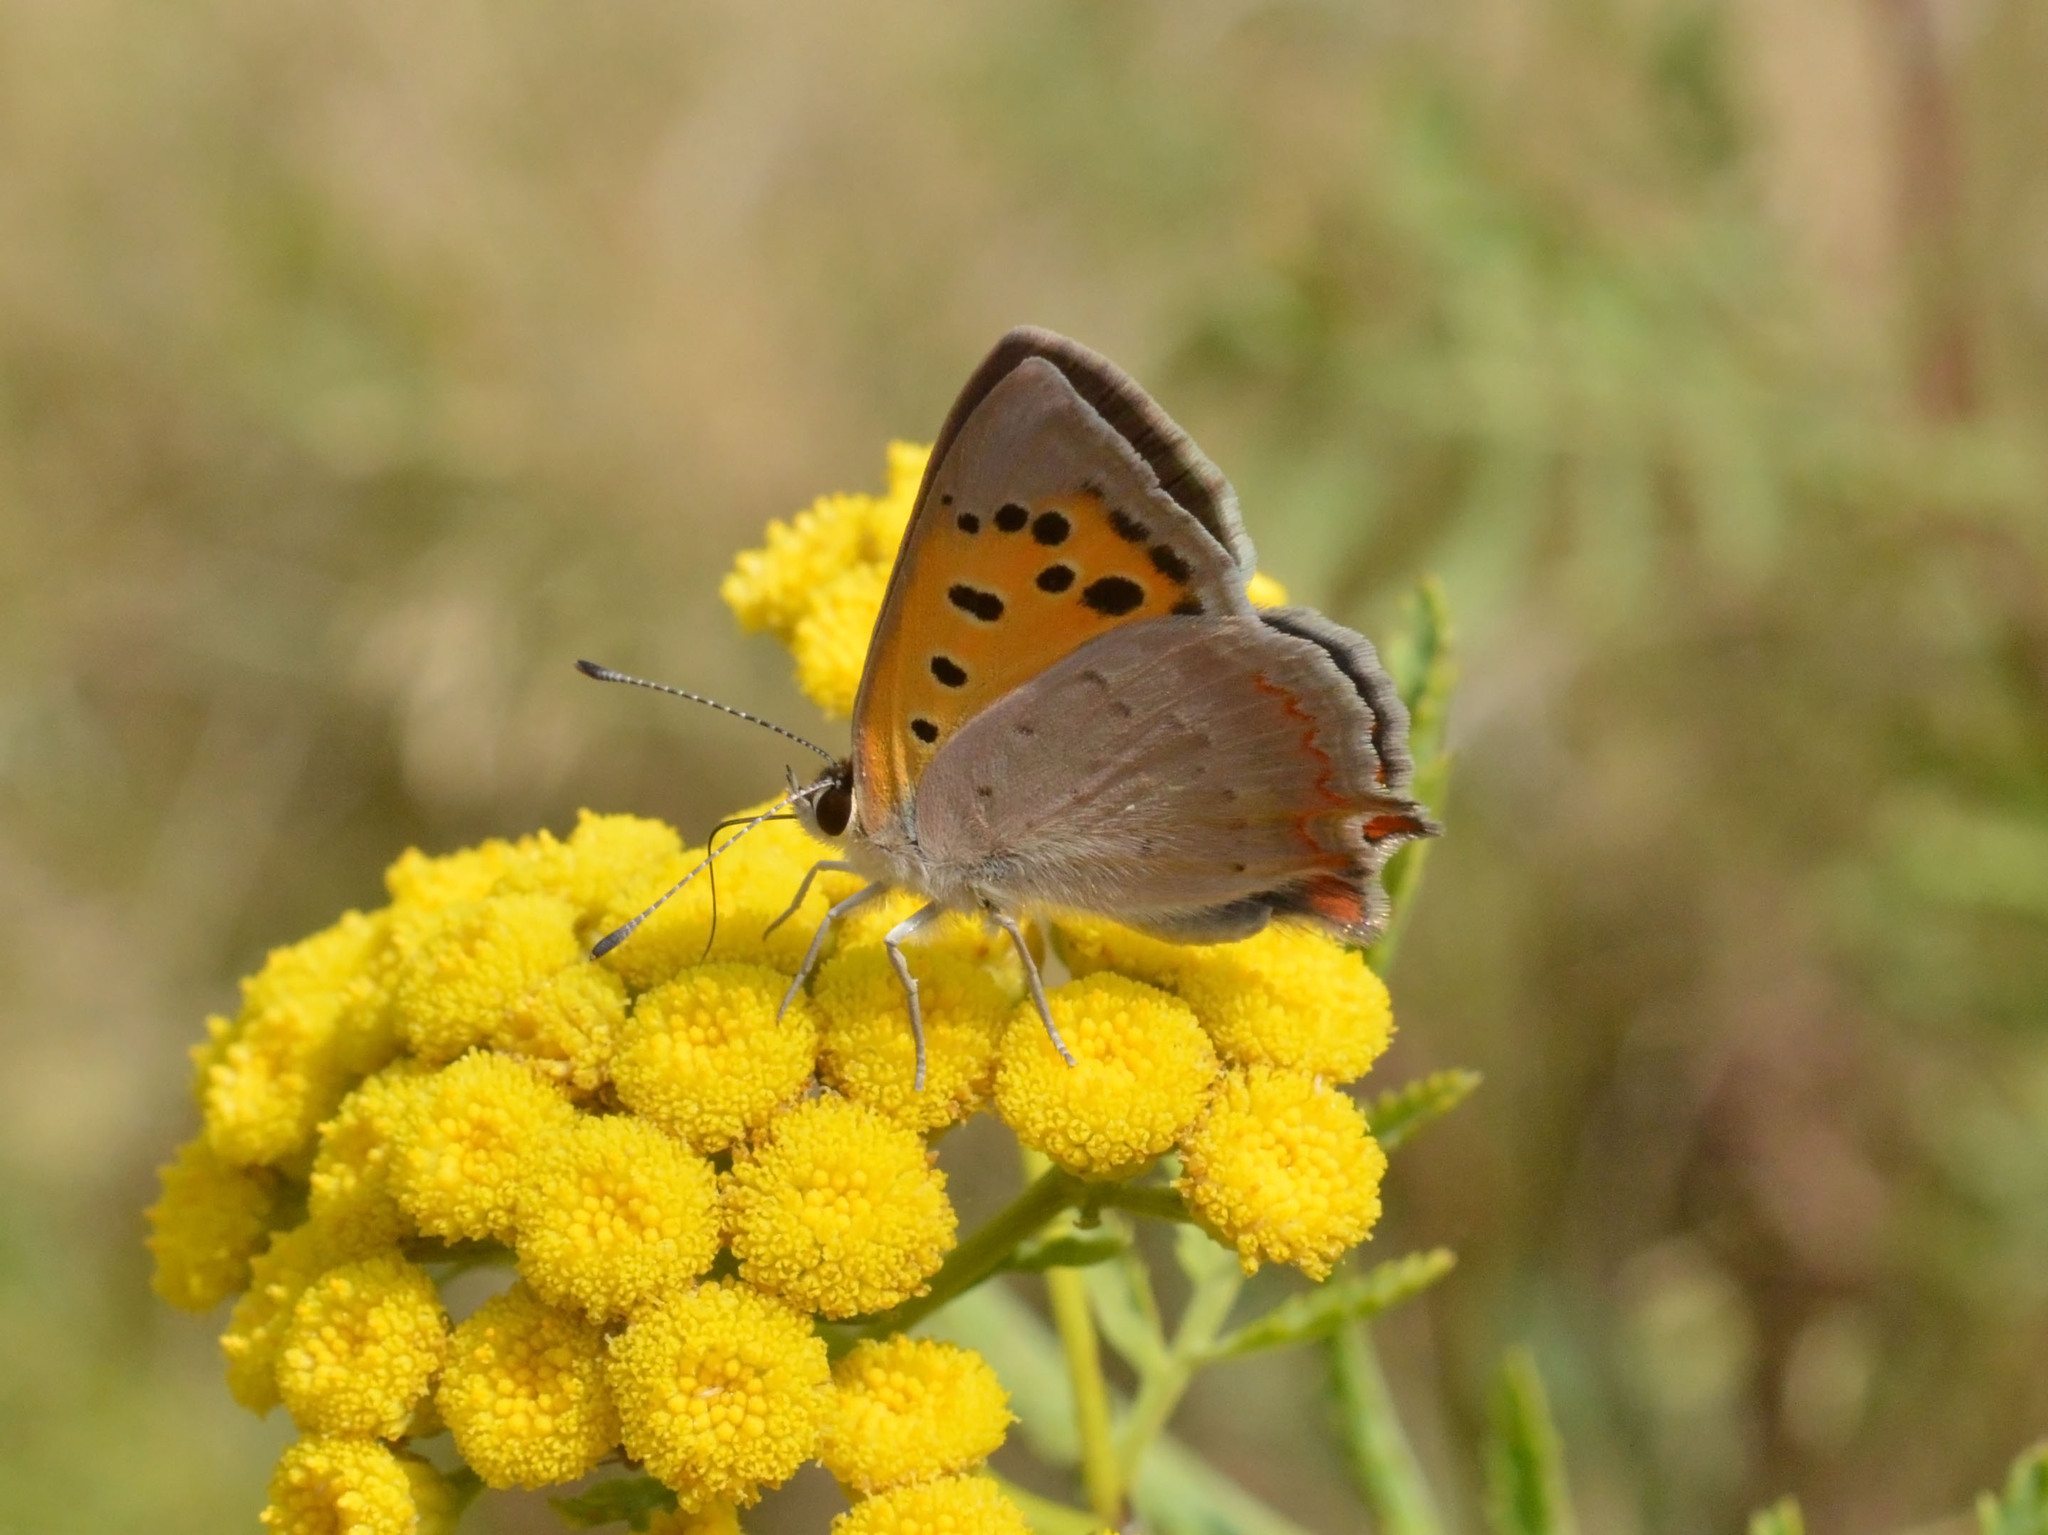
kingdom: Animalia
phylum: Arthropoda
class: Insecta
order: Lepidoptera
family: Lycaenidae
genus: Lycaena
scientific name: Lycaena phlaeas
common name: Small copper
